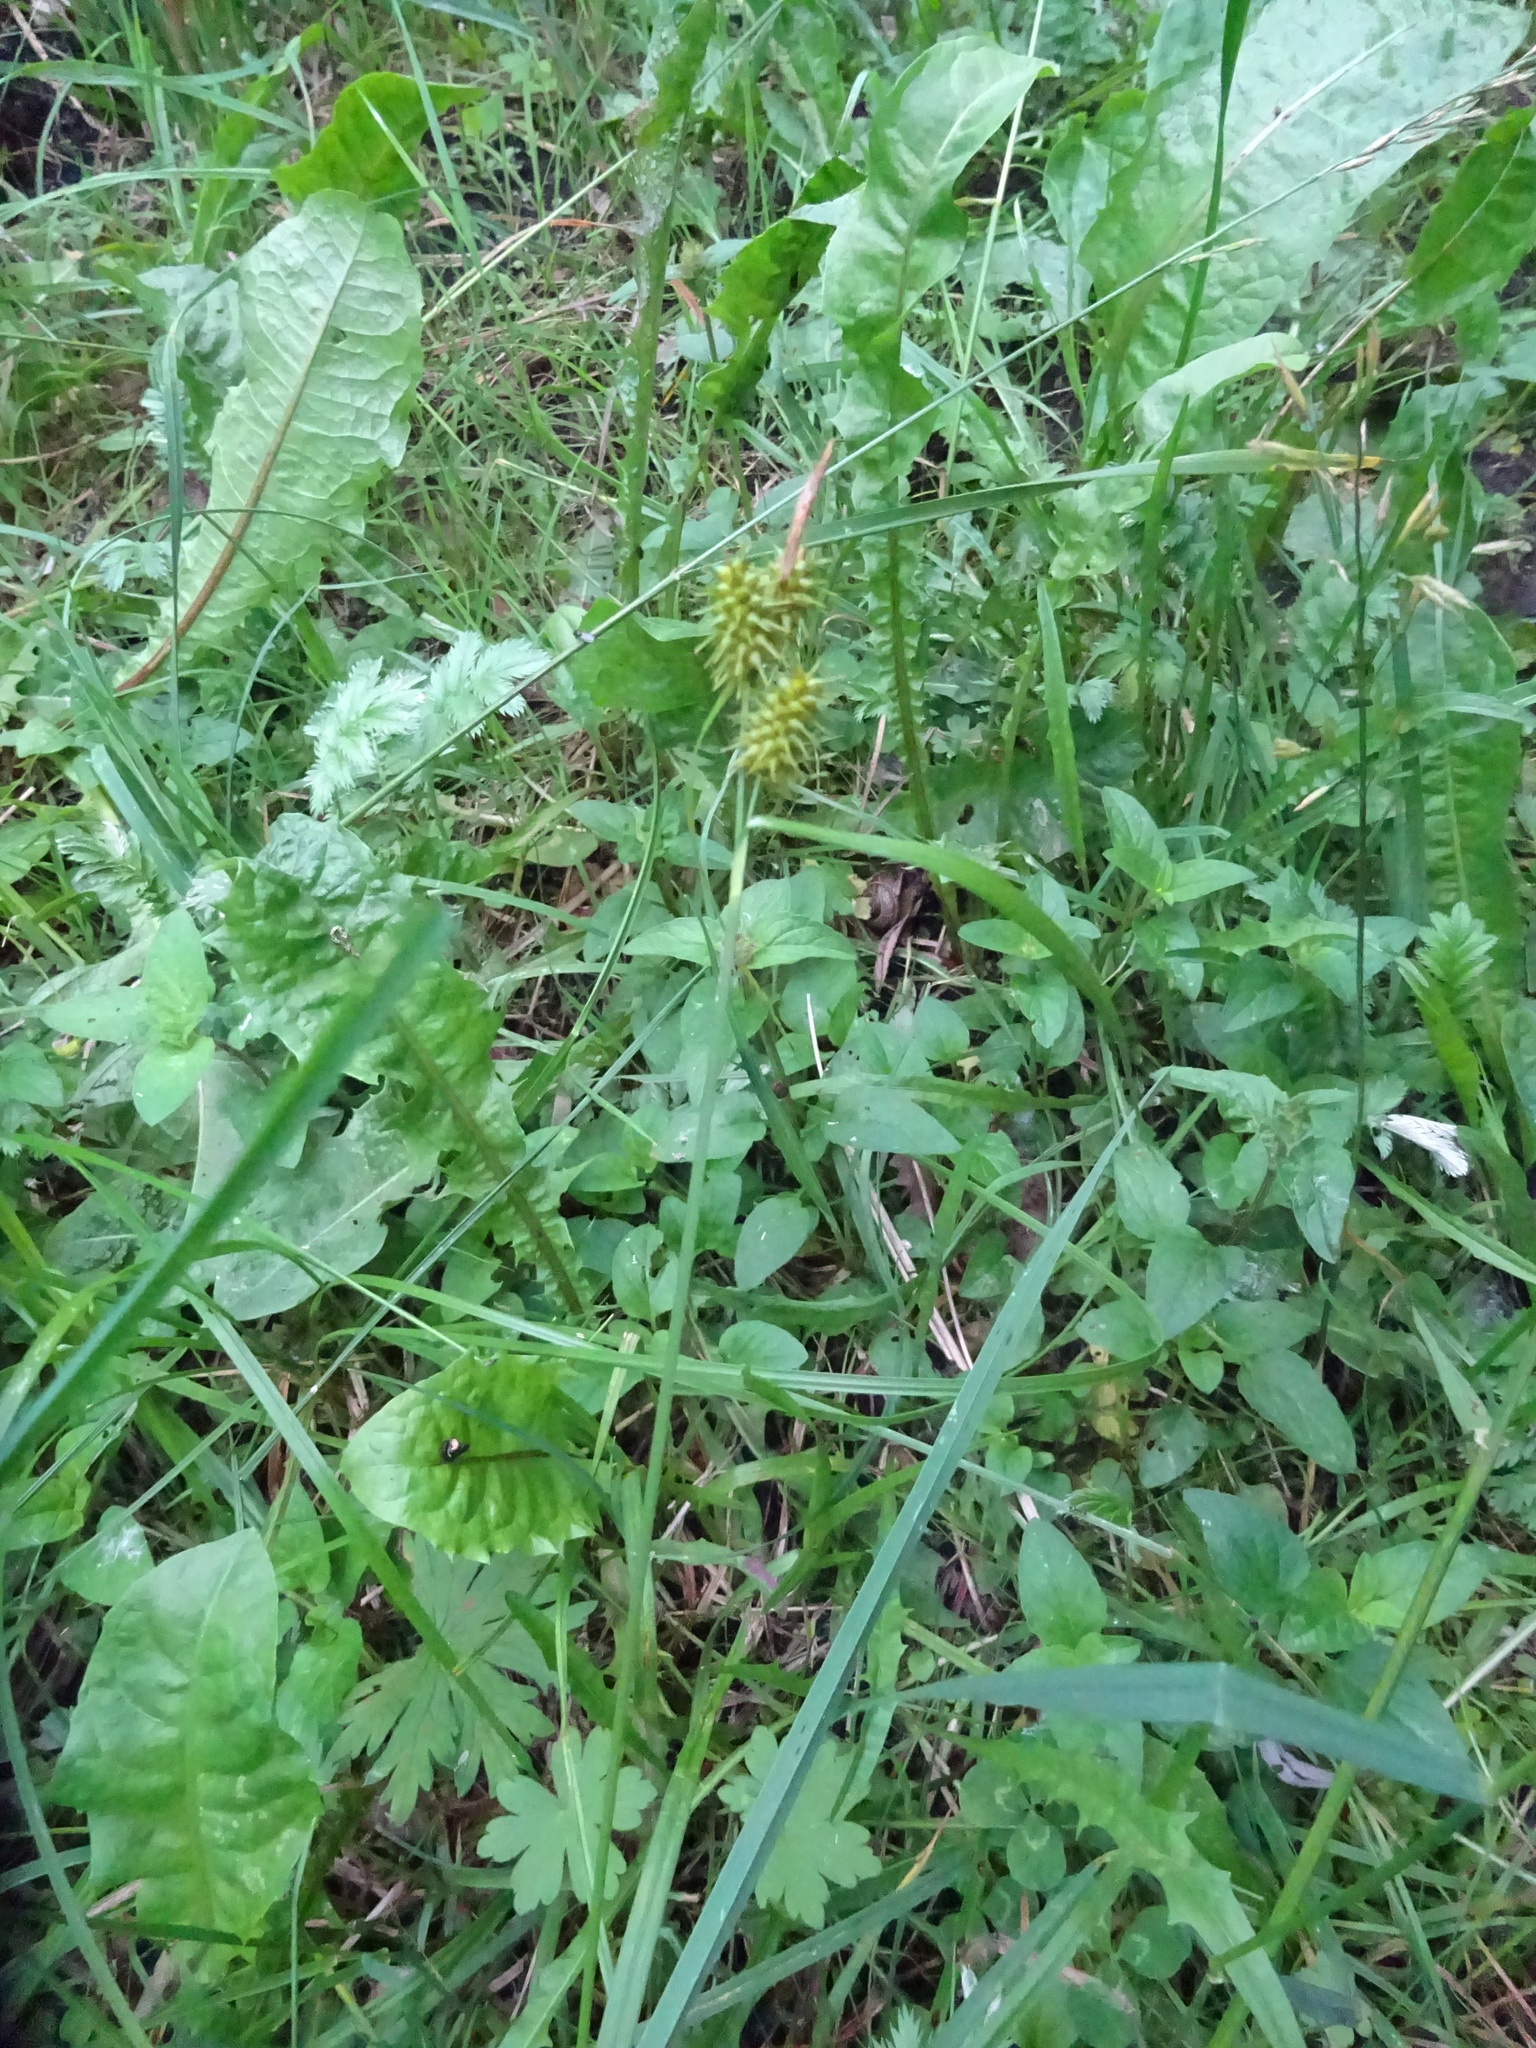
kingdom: Plantae
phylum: Tracheophyta
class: Liliopsida
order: Poales
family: Cyperaceae
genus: Carex
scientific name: Carex flava
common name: Large yellow-sedge
